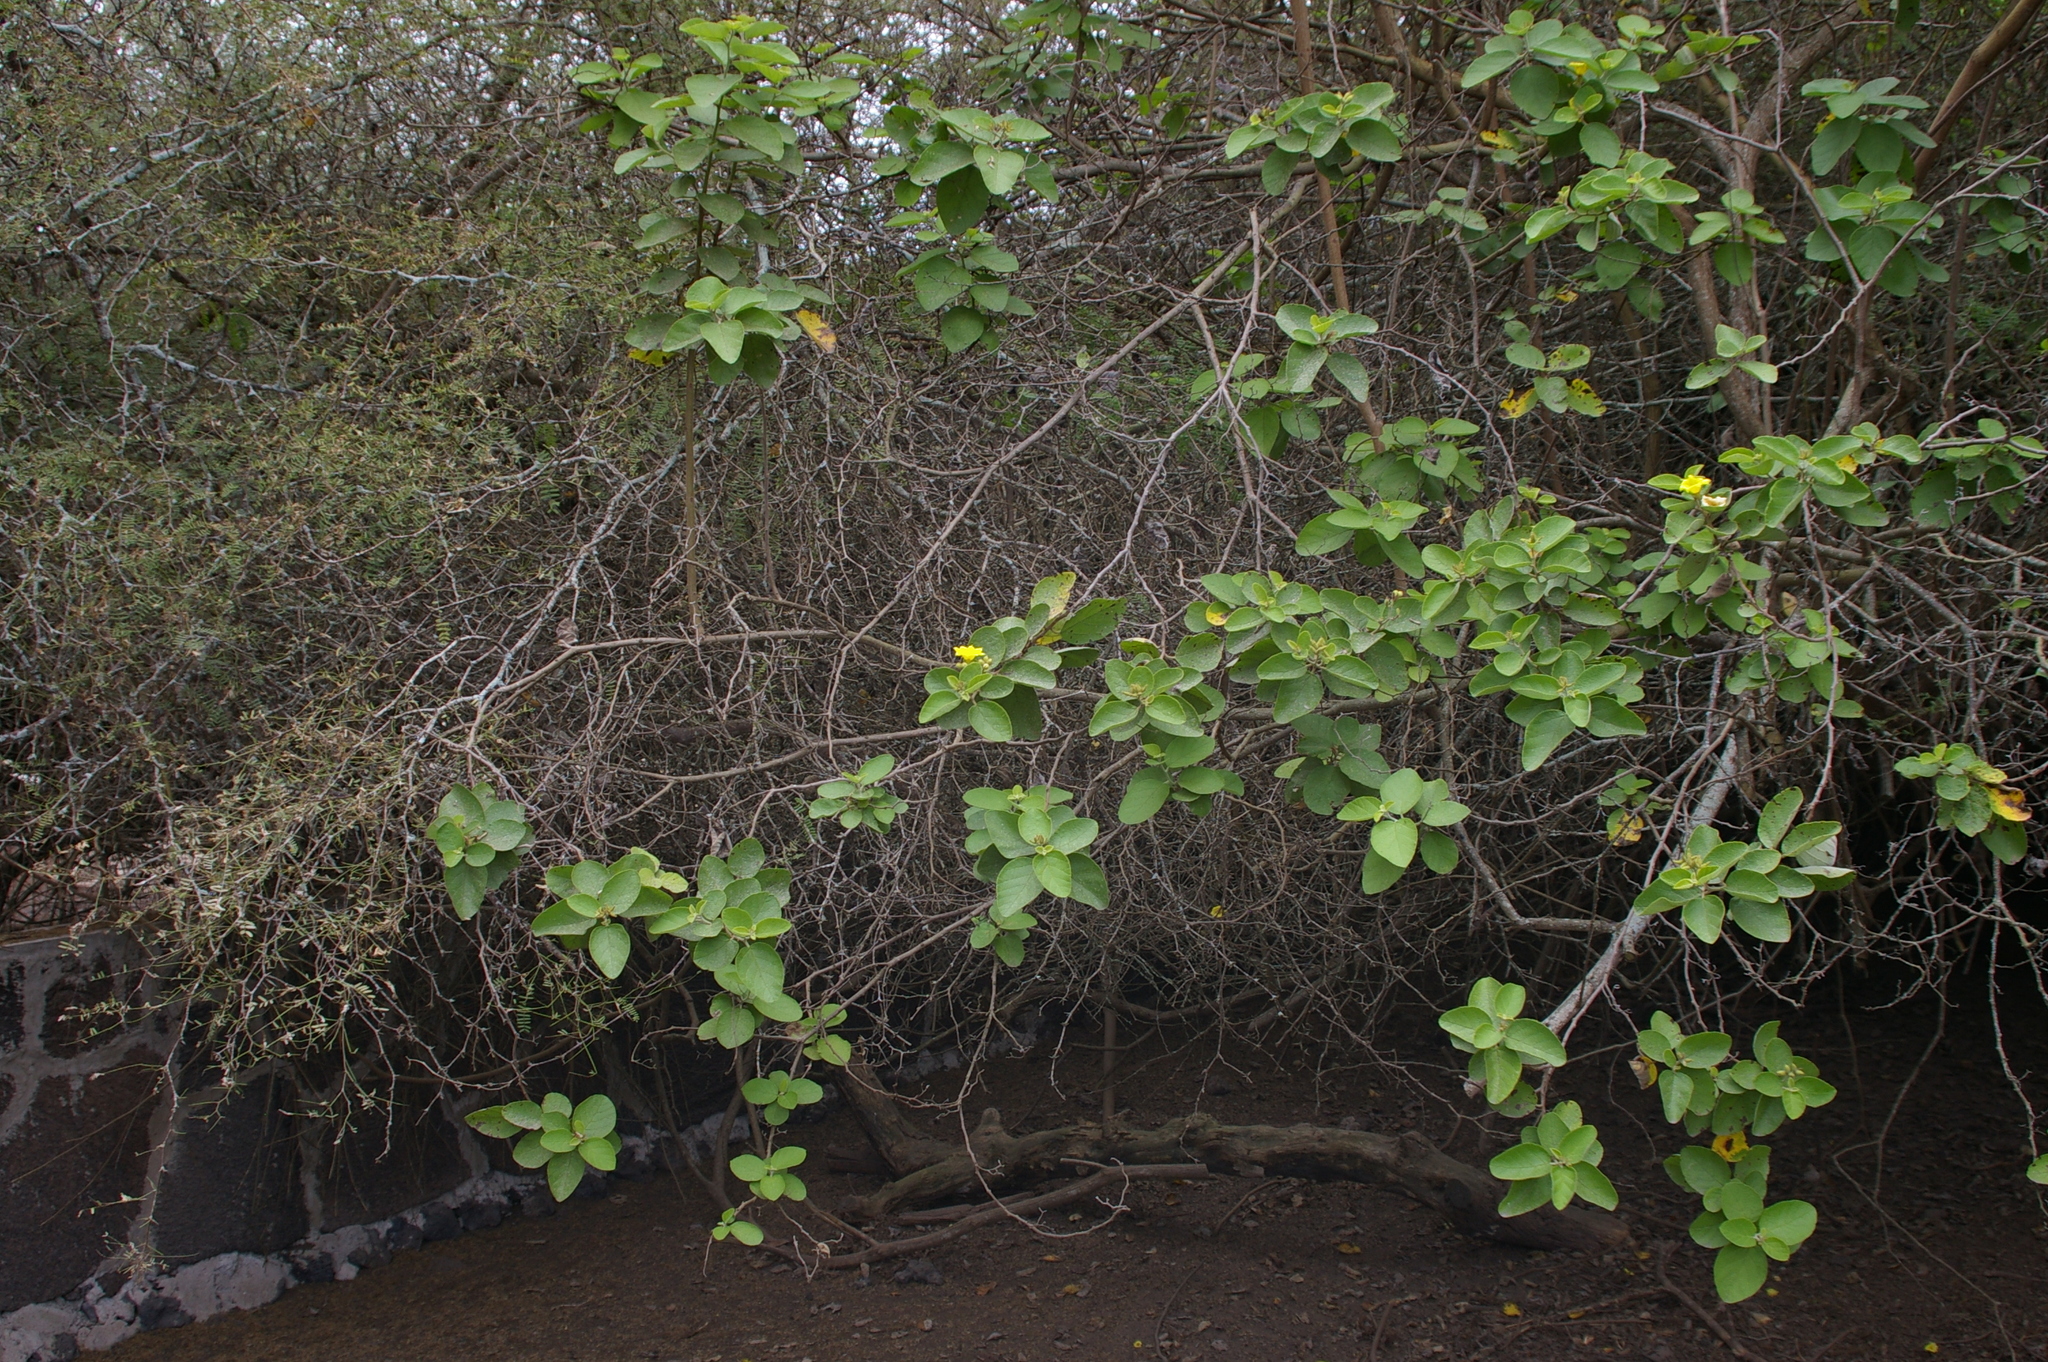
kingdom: Plantae
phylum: Tracheophyta
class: Magnoliopsida
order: Boraginales
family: Cordiaceae
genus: Cordia
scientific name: Cordia lutea
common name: Yellow geiger
